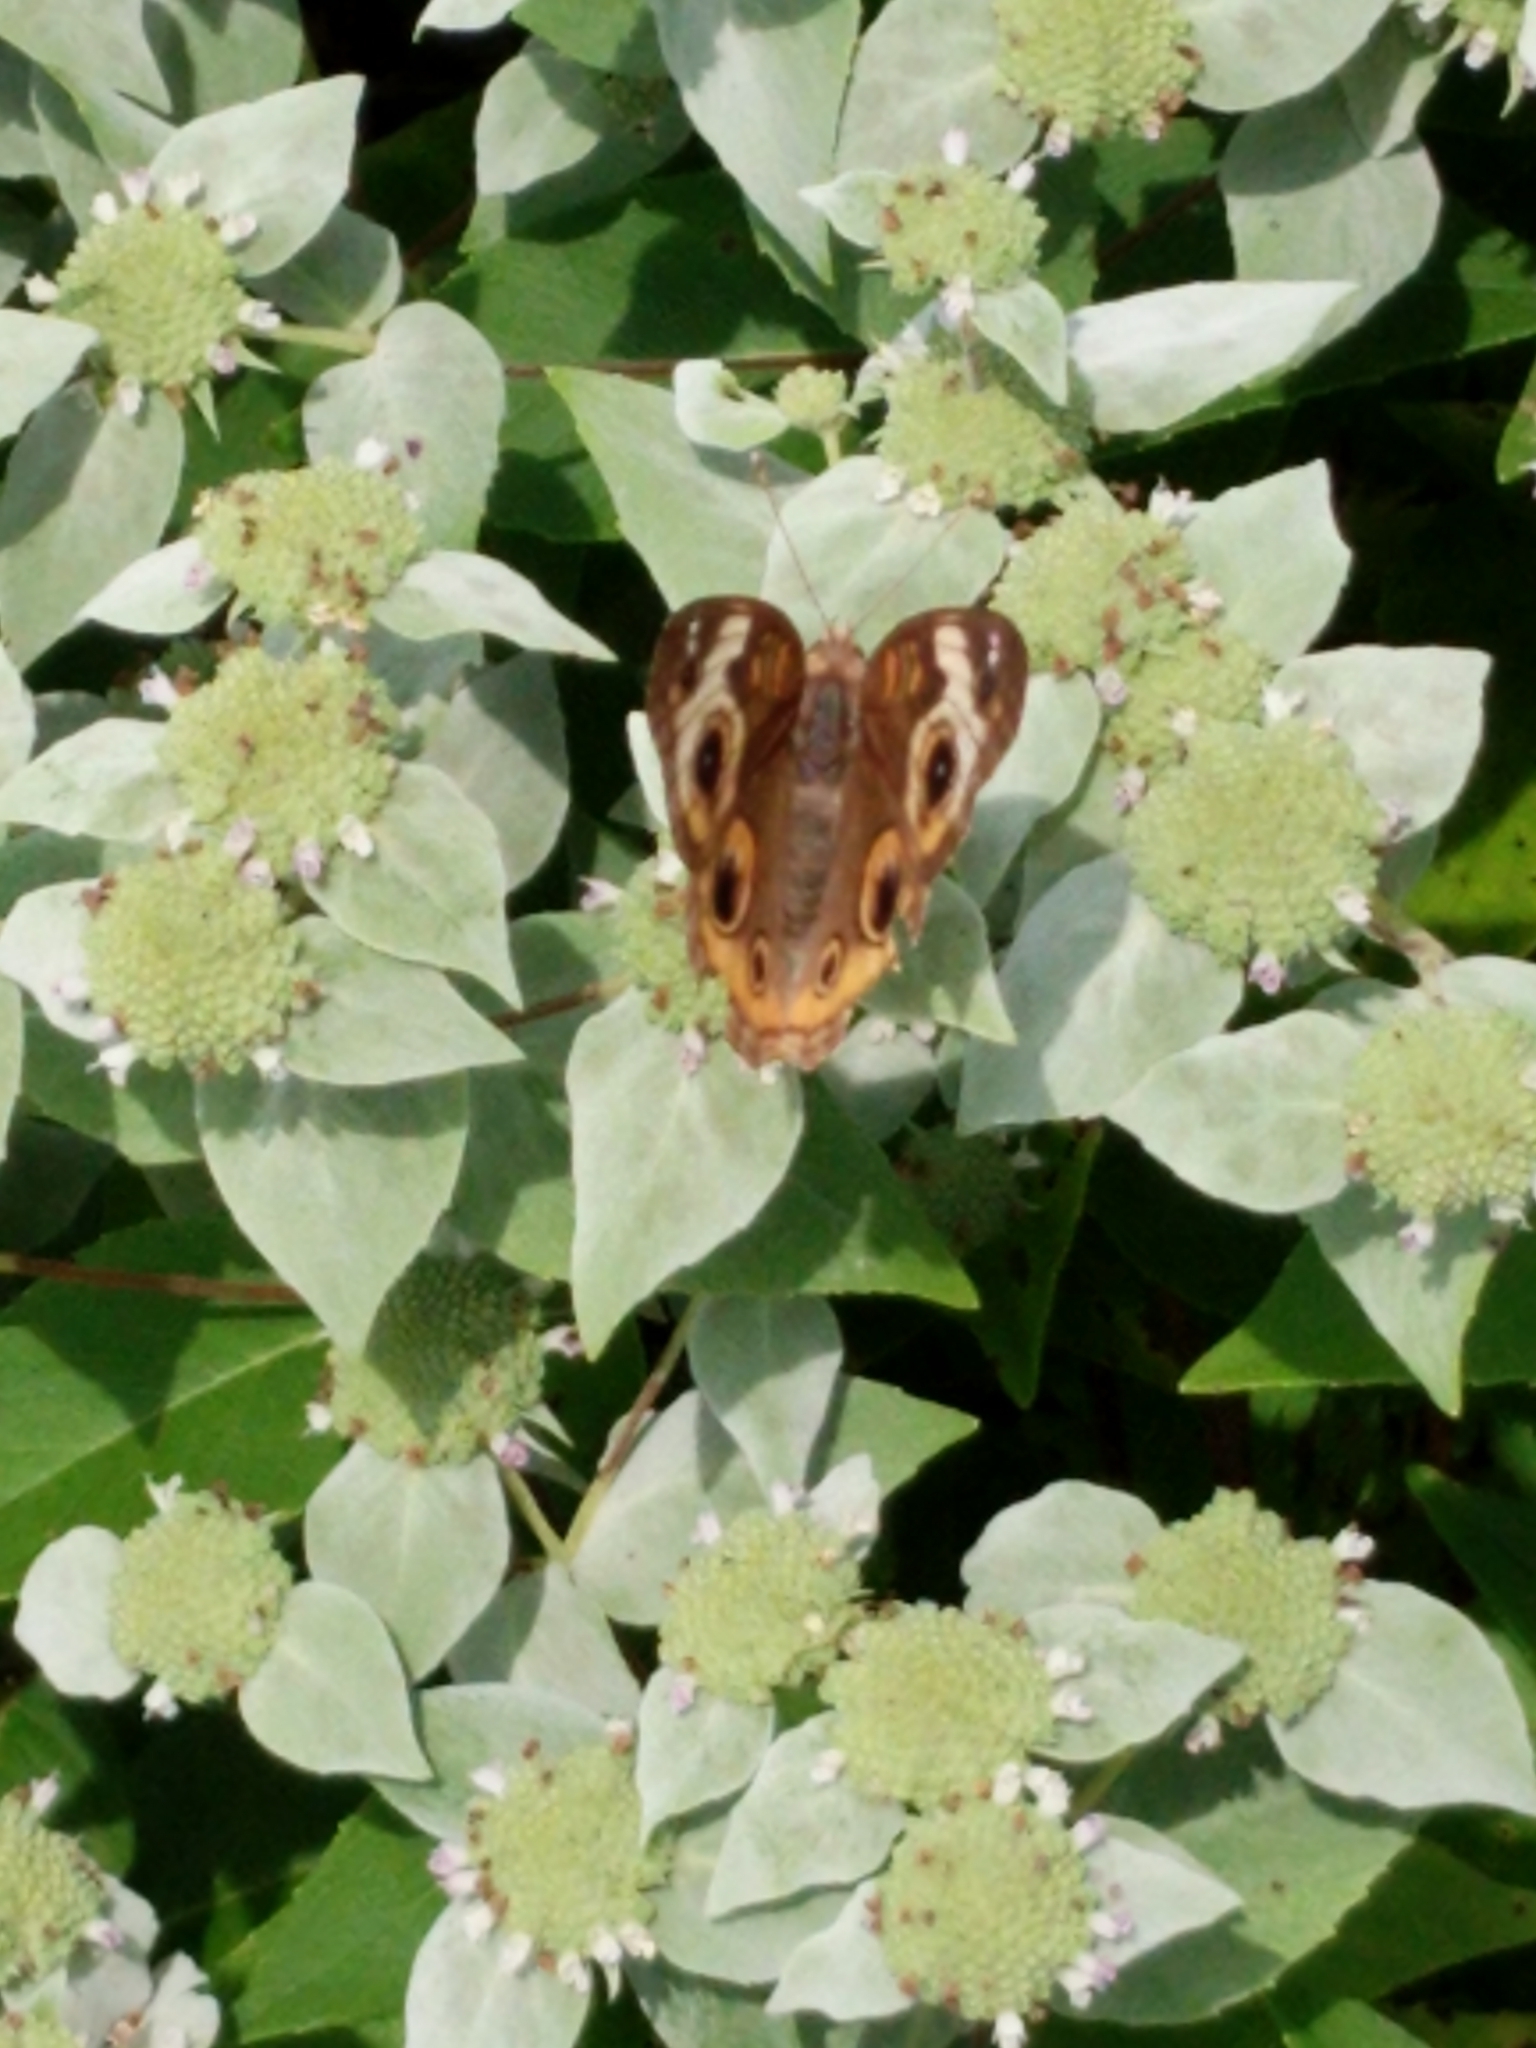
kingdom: Animalia
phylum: Arthropoda
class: Insecta
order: Lepidoptera
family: Nymphalidae
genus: Junonia
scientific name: Junonia coenia
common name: Common buckeye
